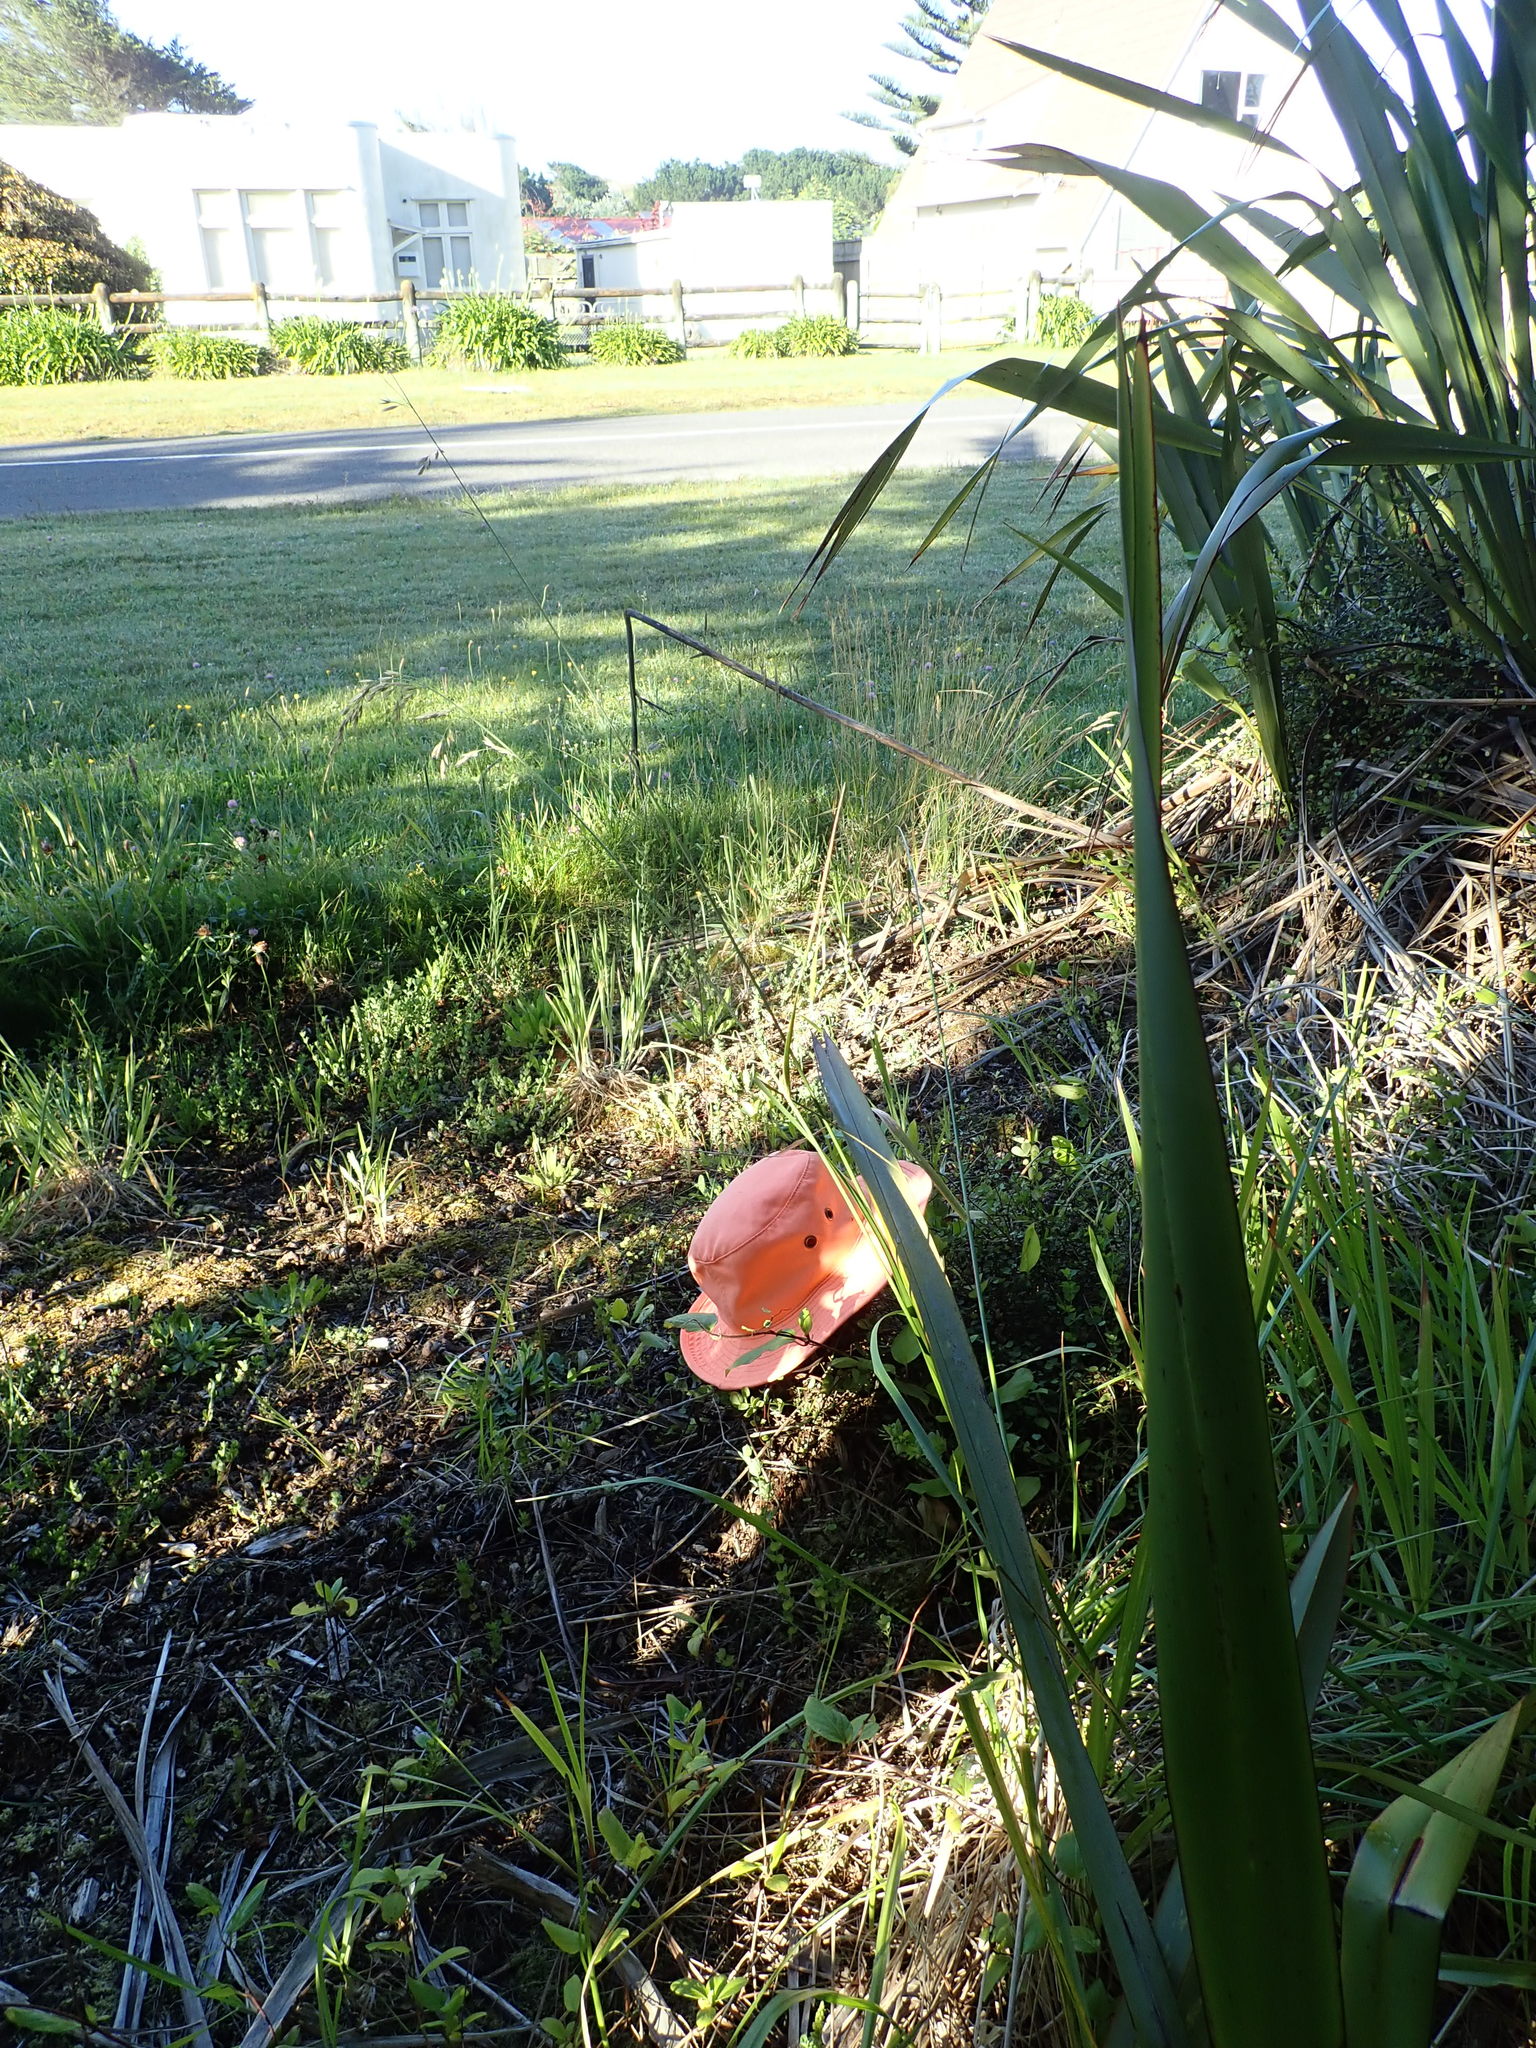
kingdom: Plantae
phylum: Tracheophyta
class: Magnoliopsida
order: Caryophyllales
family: Polygonaceae
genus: Muehlenbeckia
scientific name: Muehlenbeckia complexa
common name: Wireplant
